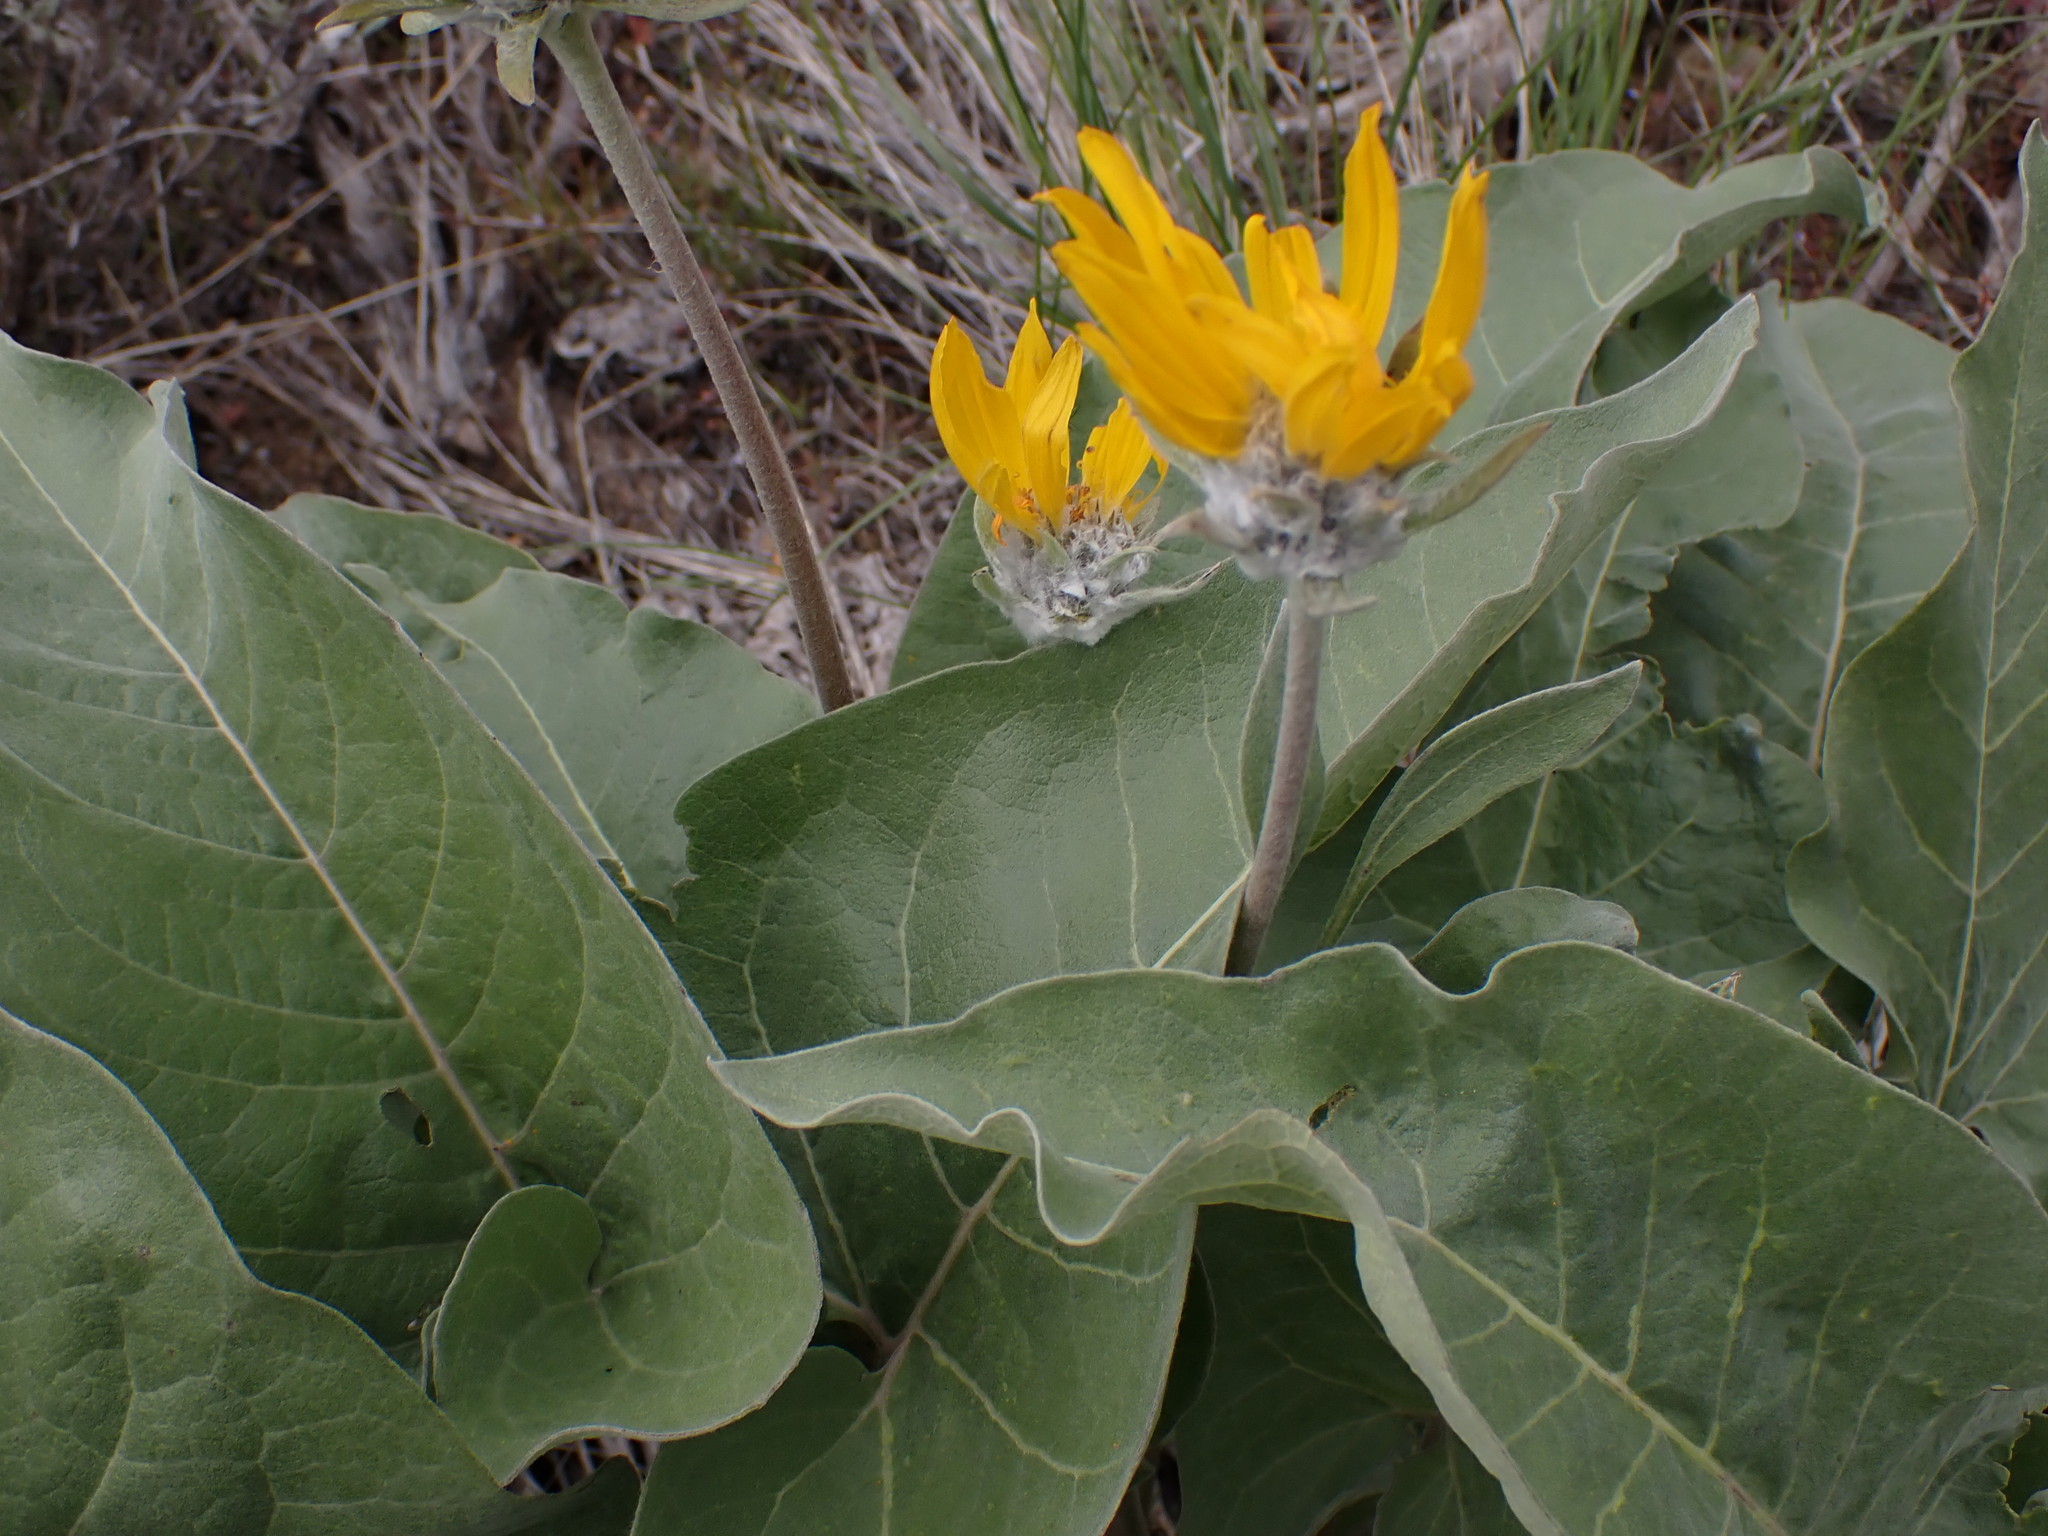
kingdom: Plantae
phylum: Tracheophyta
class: Magnoliopsida
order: Asterales
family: Asteraceae
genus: Wyethia
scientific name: Wyethia sagittata
